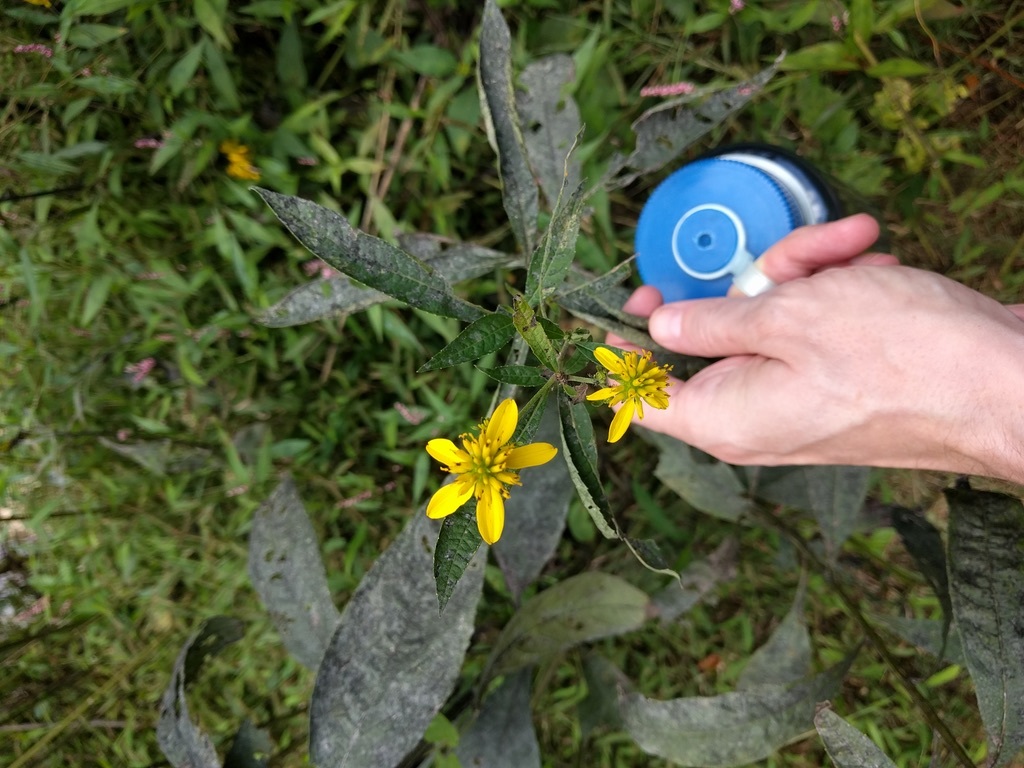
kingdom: Plantae
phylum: Tracheophyta
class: Magnoliopsida
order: Asterales
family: Asteraceae
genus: Verbesina
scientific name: Verbesina alternifolia
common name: Wingstem
